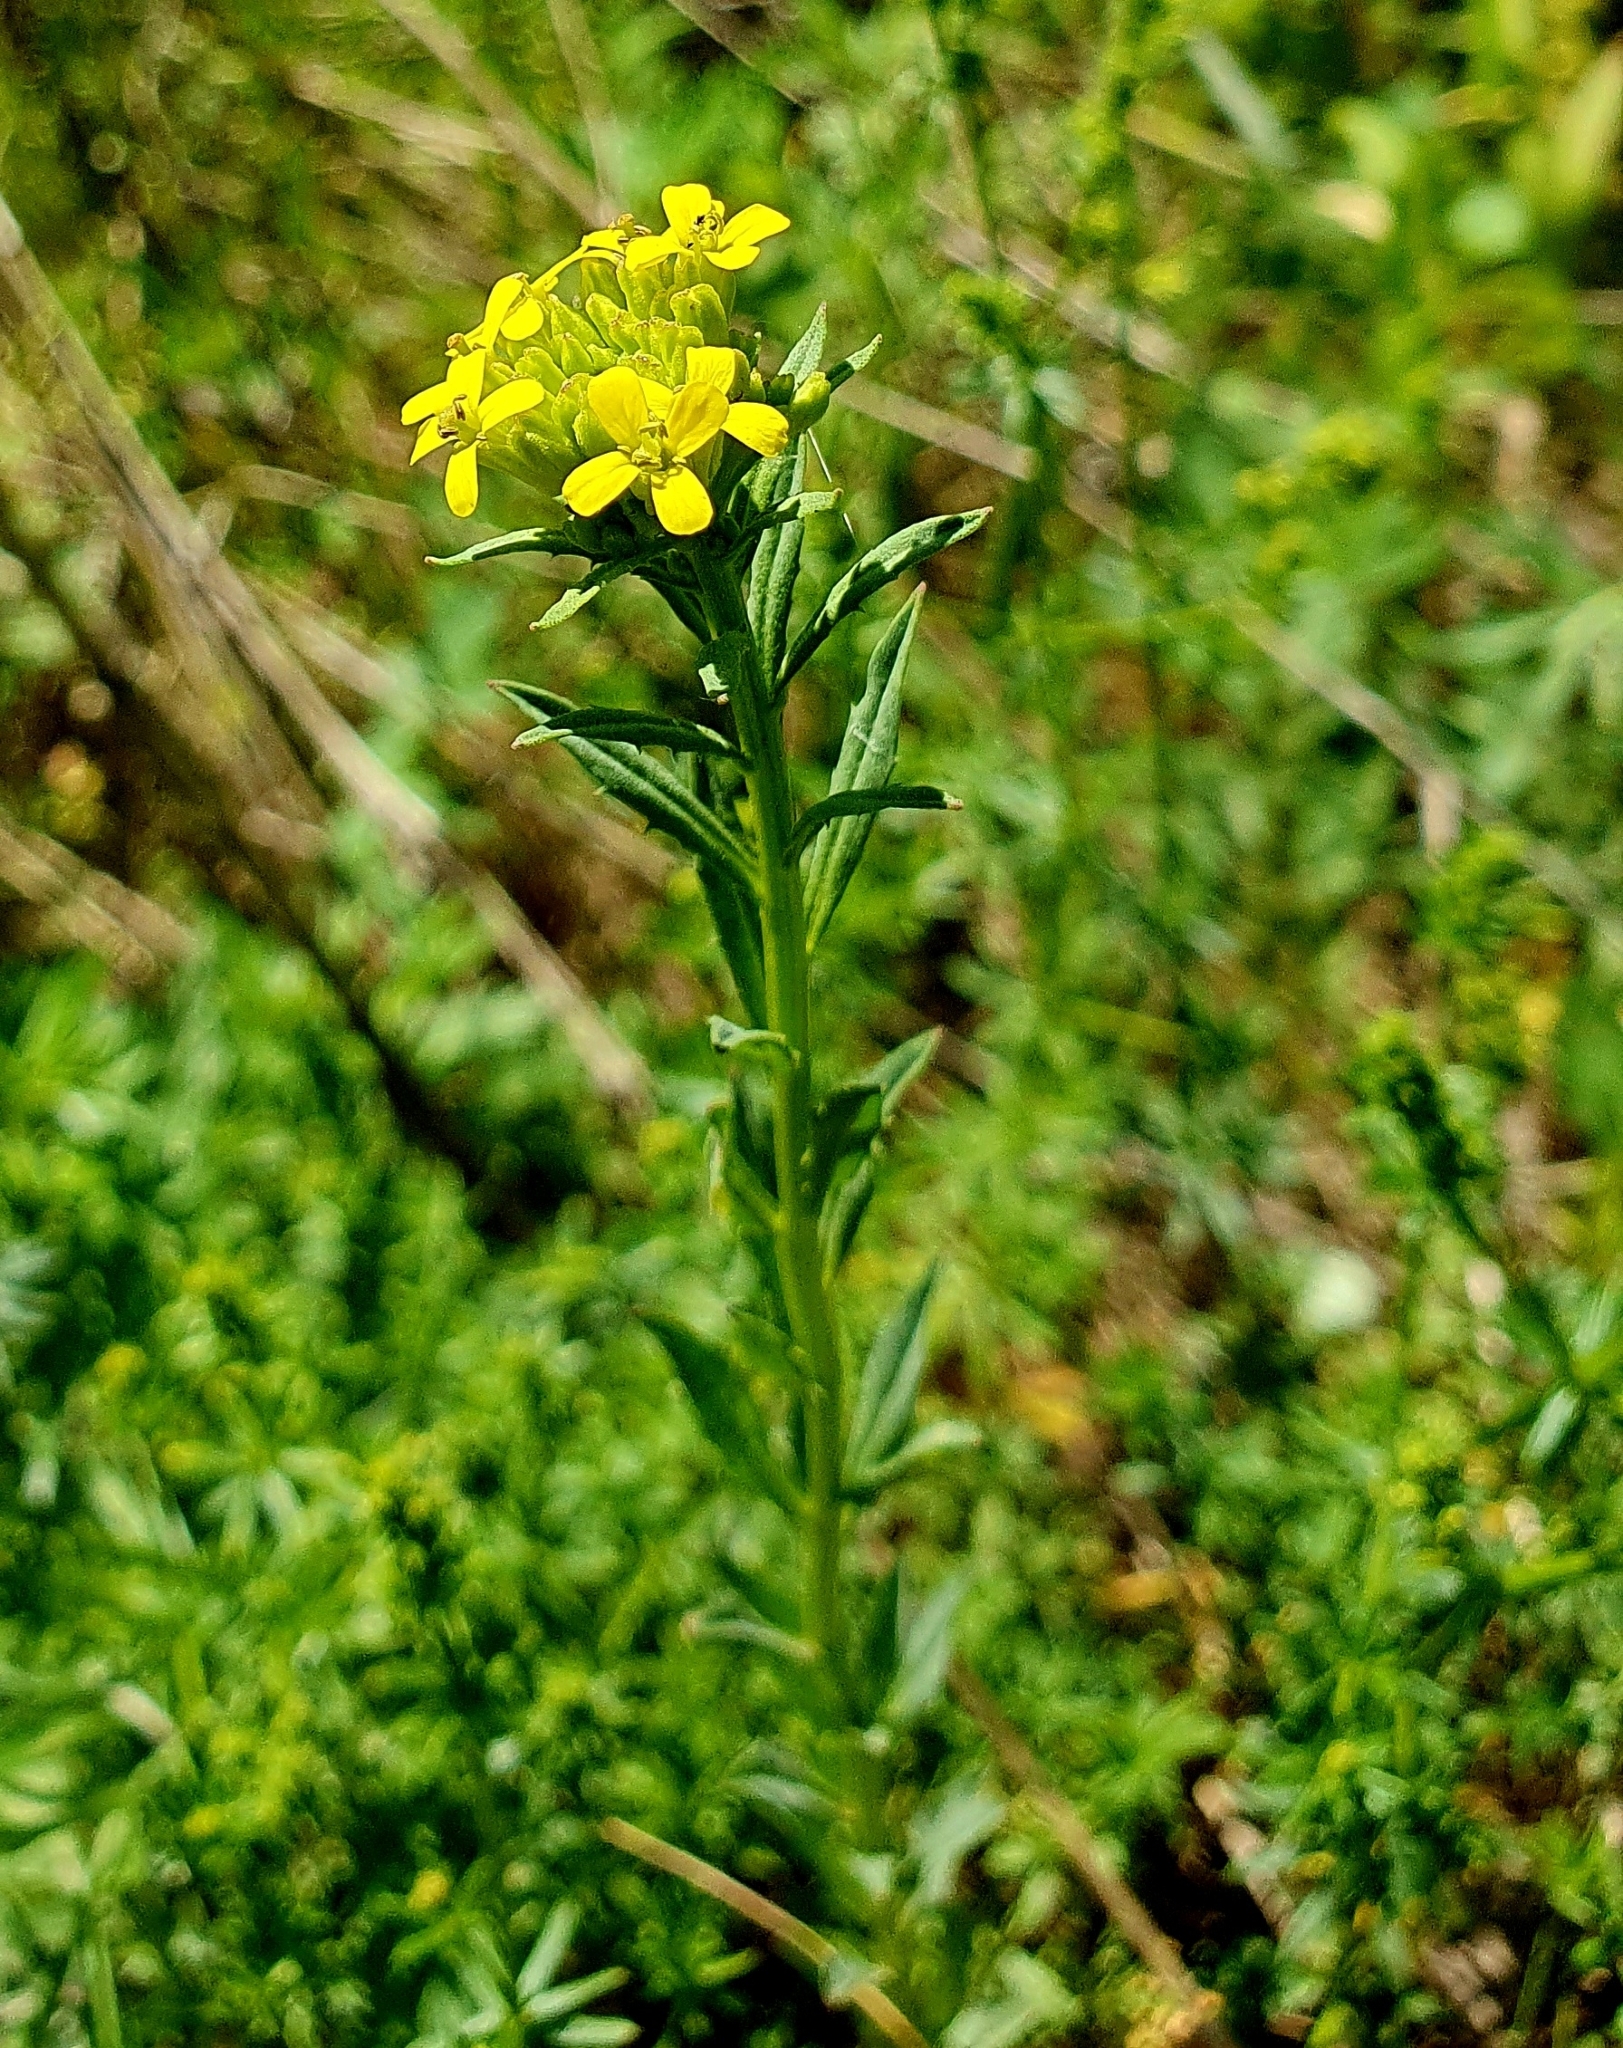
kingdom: Plantae
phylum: Tracheophyta
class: Magnoliopsida
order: Brassicales
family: Brassicaceae
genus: Erysimum
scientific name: Erysimum hieraciifolium
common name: European wallflower
